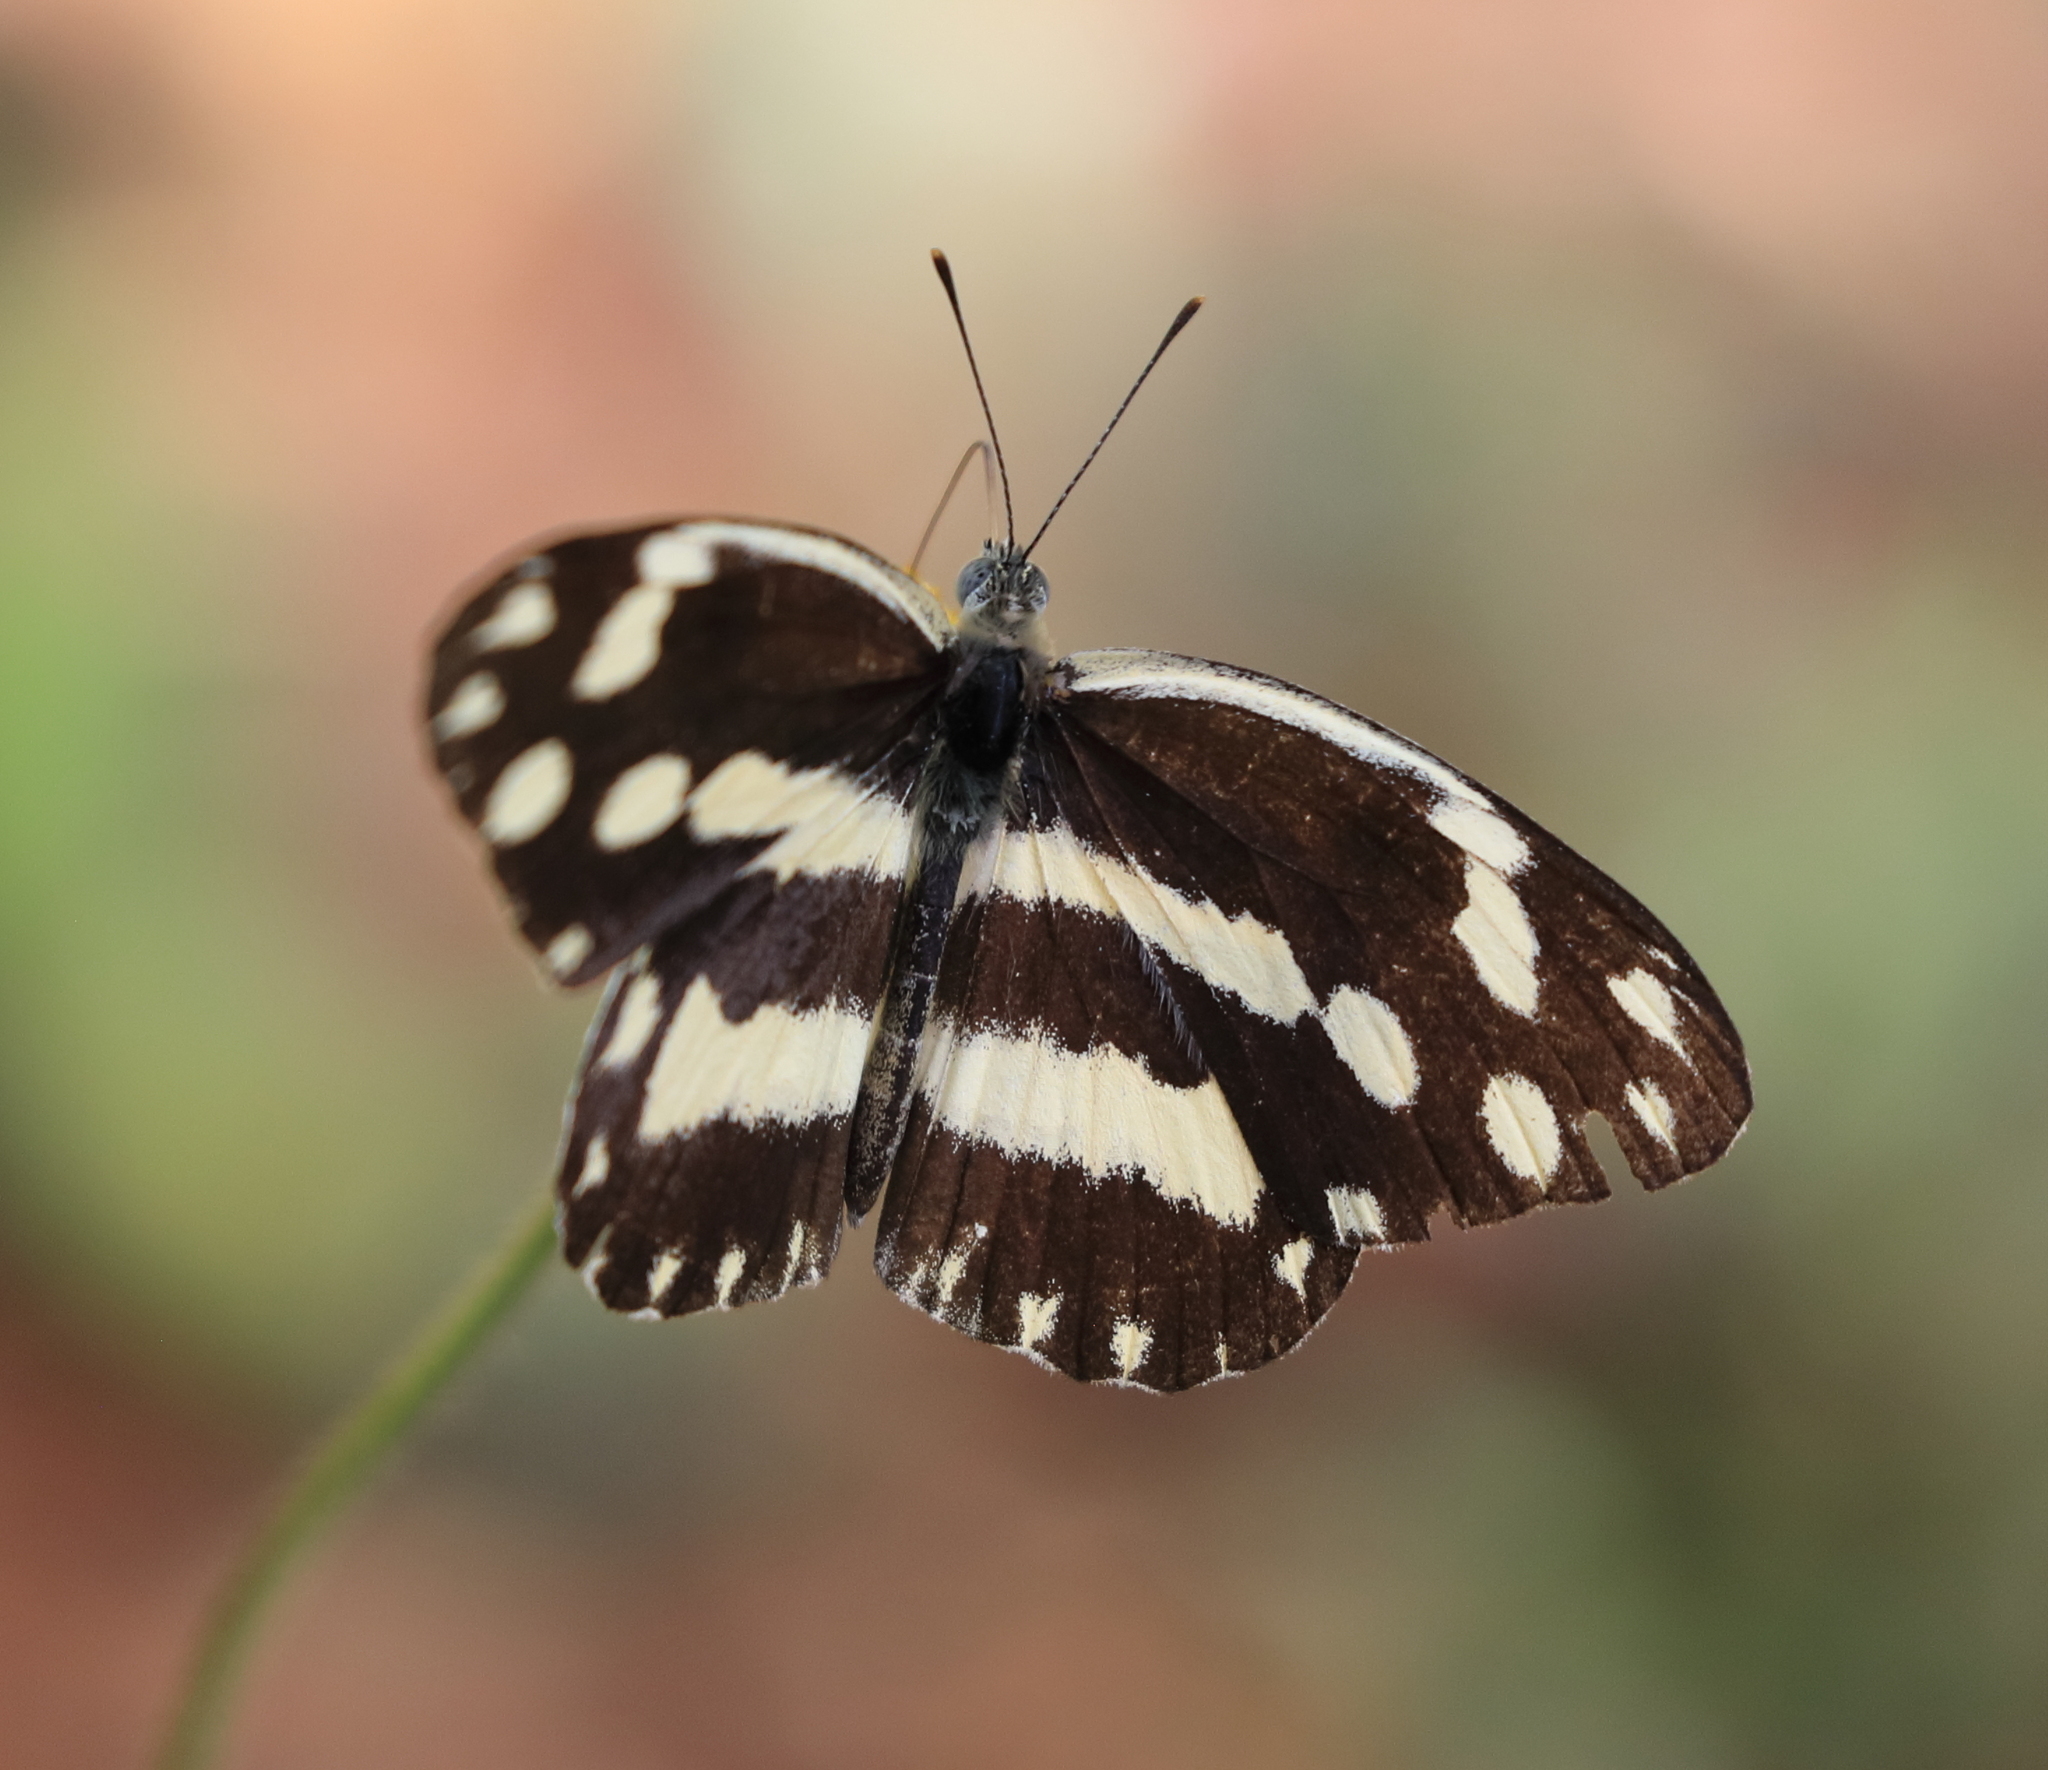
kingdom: Animalia
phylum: Arthropoda
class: Insecta
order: Lepidoptera
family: Pieridae
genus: Pinacopteryx
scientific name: Pinacopteryx eriphia
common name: Zebra white
